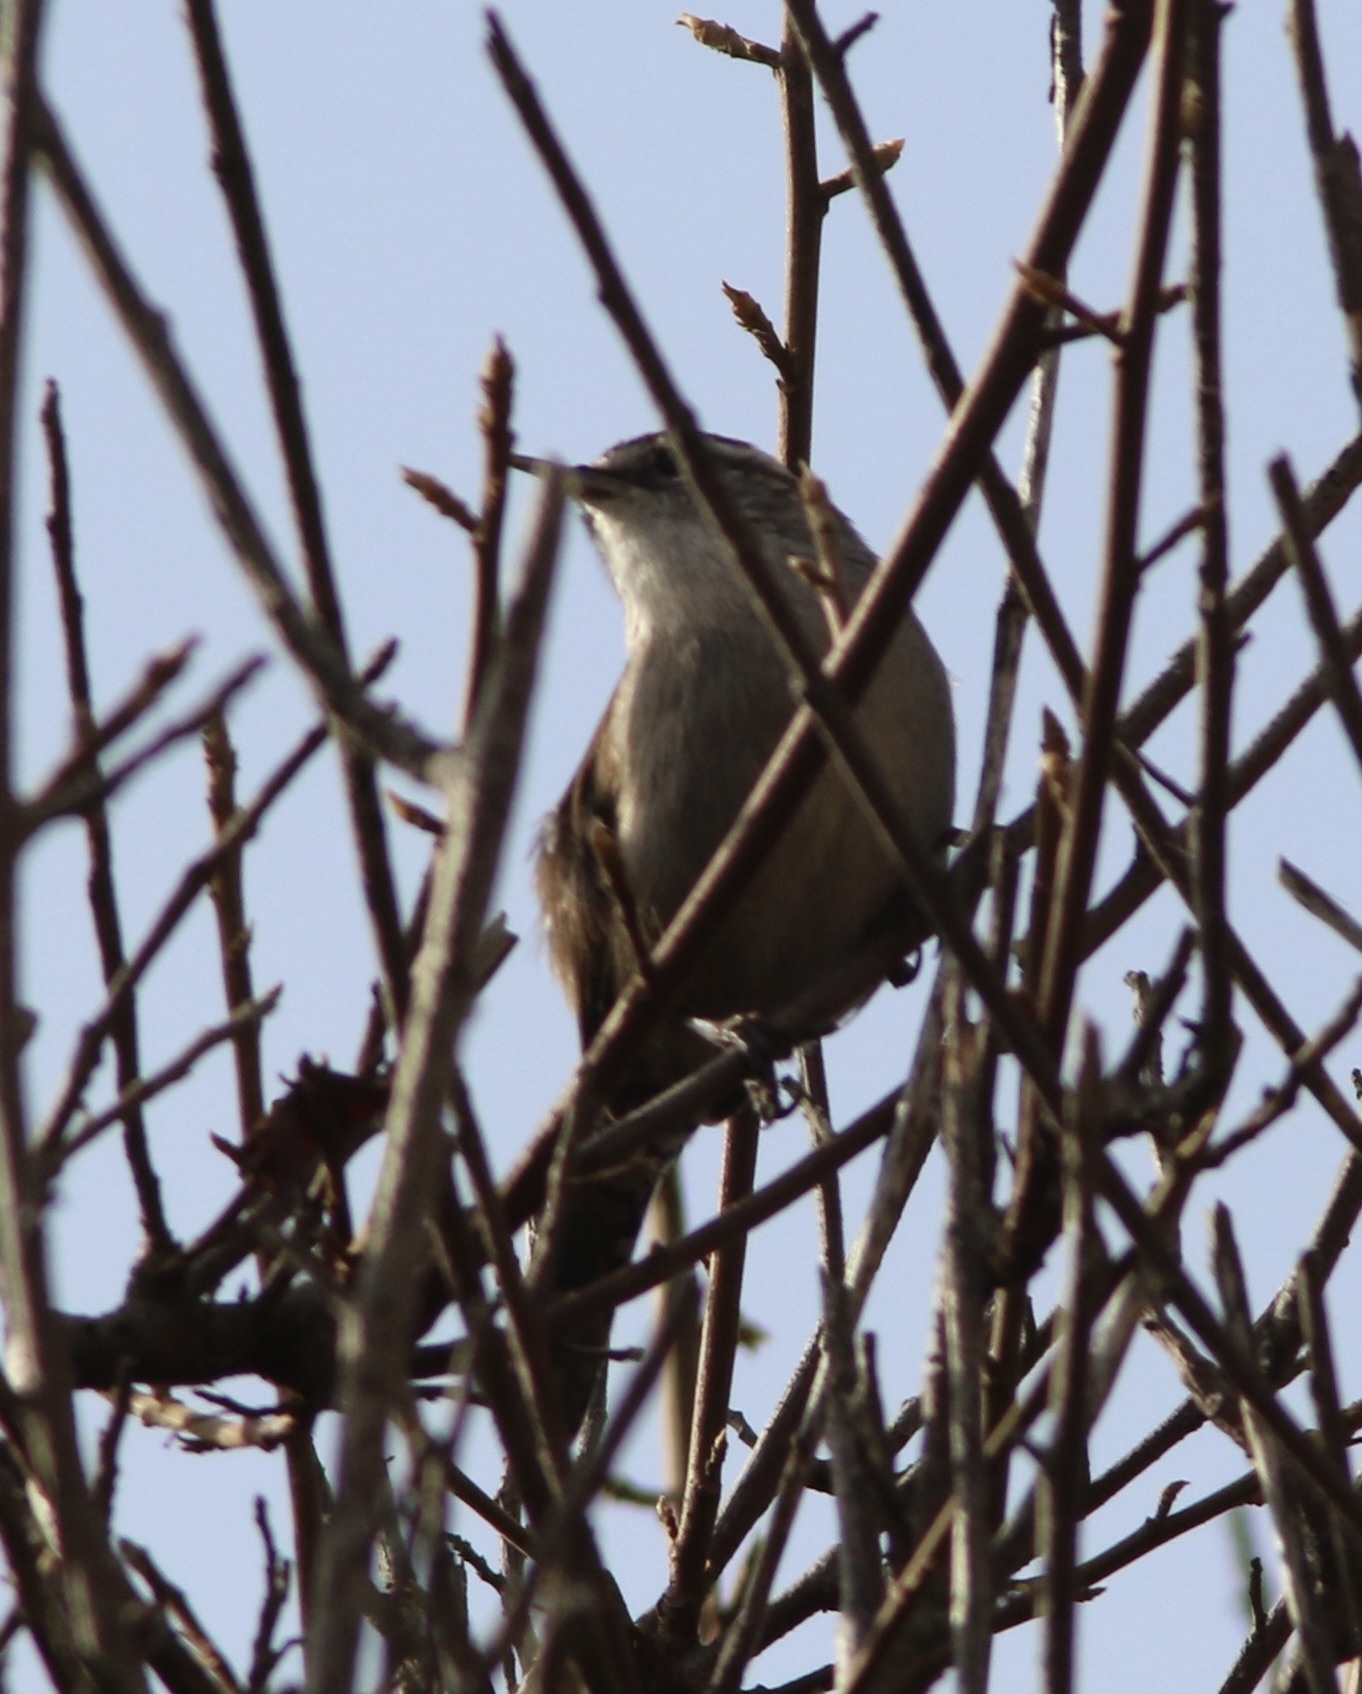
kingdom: Animalia
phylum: Chordata
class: Aves
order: Passeriformes
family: Troglodytidae
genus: Thryomanes
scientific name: Thryomanes bewickii
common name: Bewick's wren
